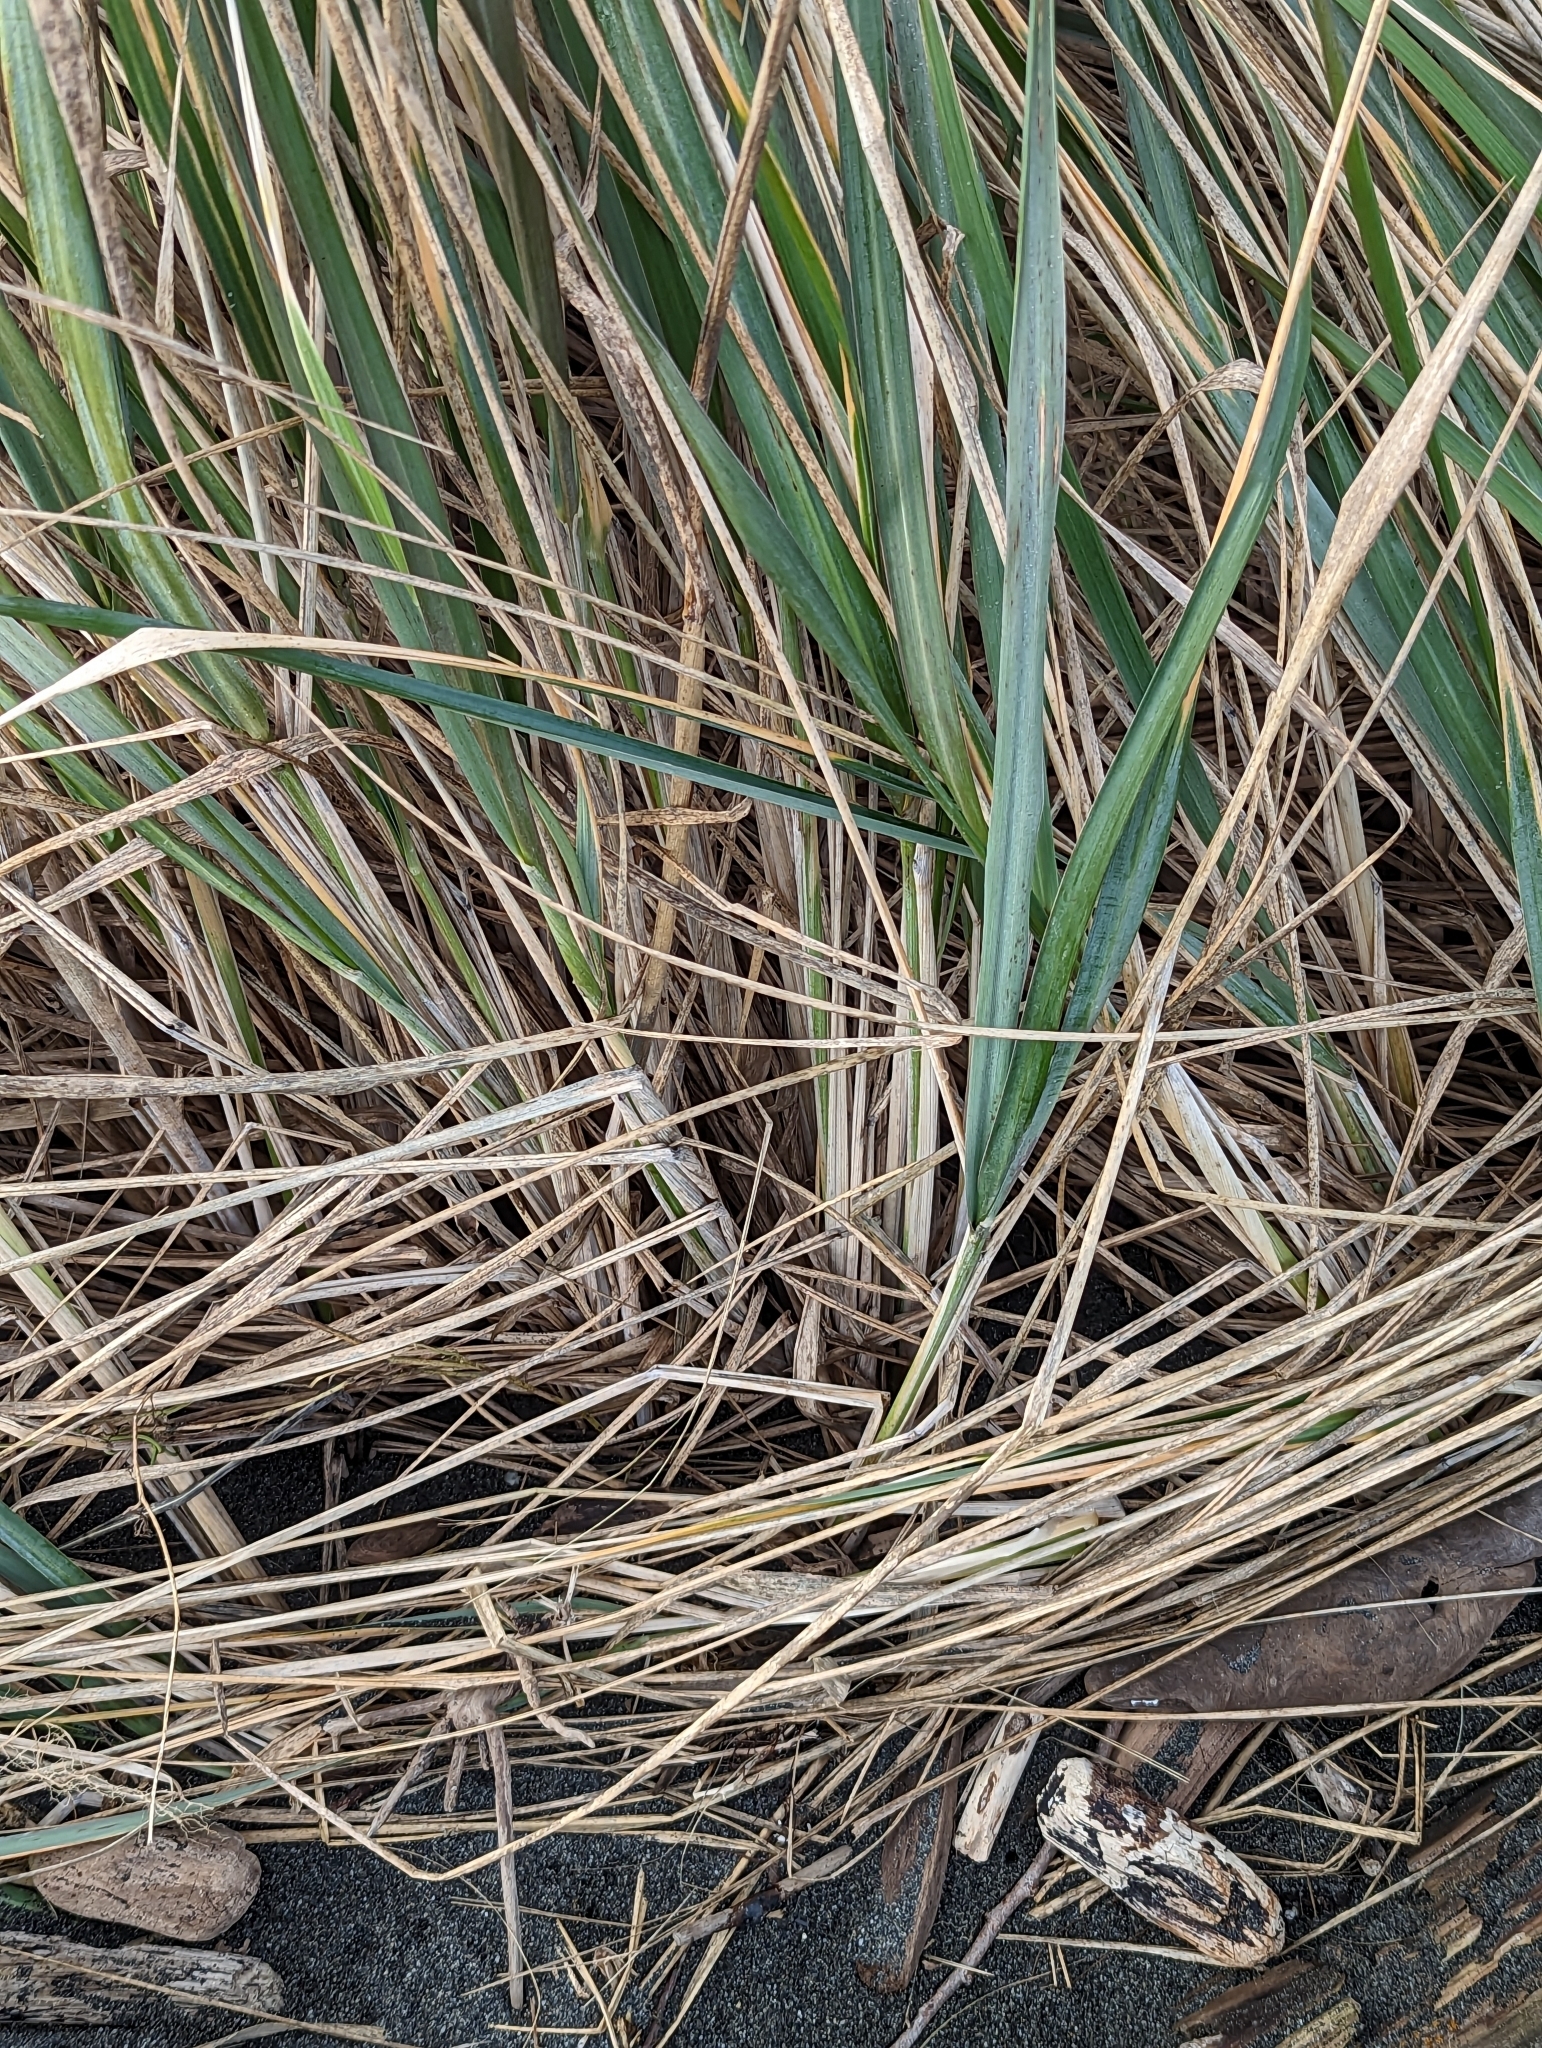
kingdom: Plantae
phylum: Tracheophyta
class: Liliopsida
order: Poales
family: Poaceae
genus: Leymus
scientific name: Leymus mollis
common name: American dune grass
